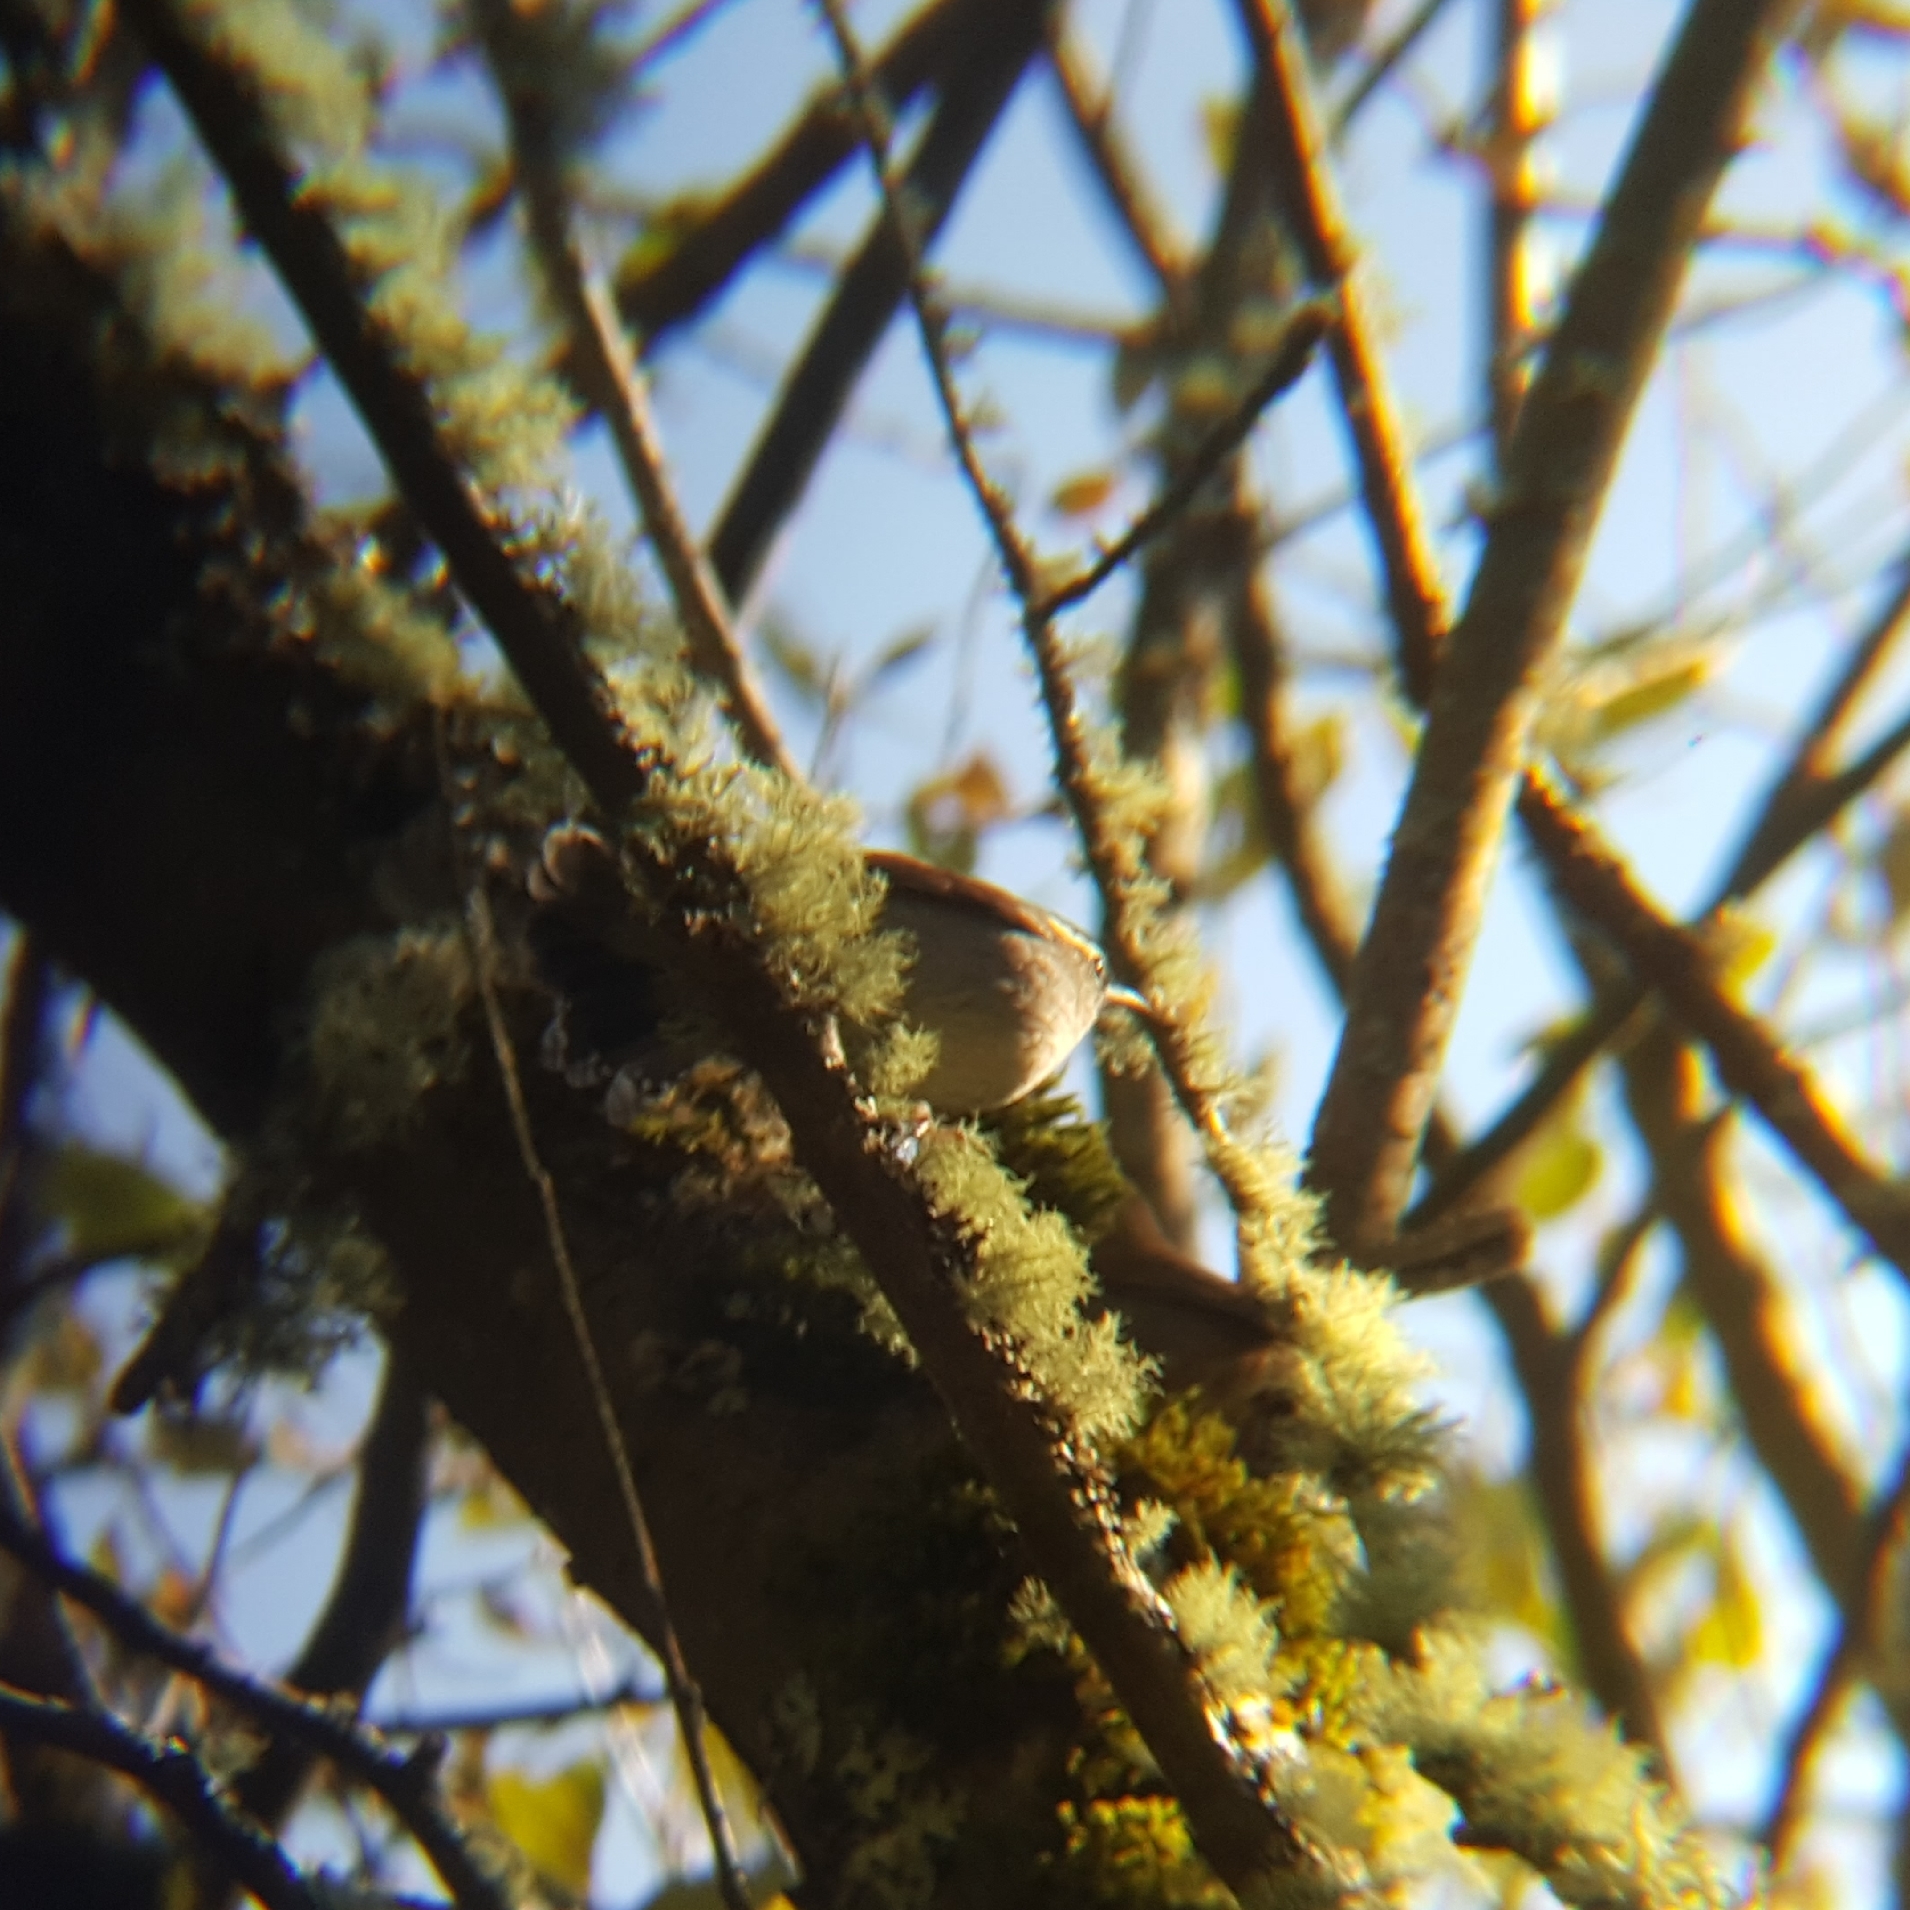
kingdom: Animalia
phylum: Chordata
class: Aves
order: Passeriformes
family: Troglodytidae
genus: Thryomanes
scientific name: Thryomanes bewickii
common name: Bewick's wren
